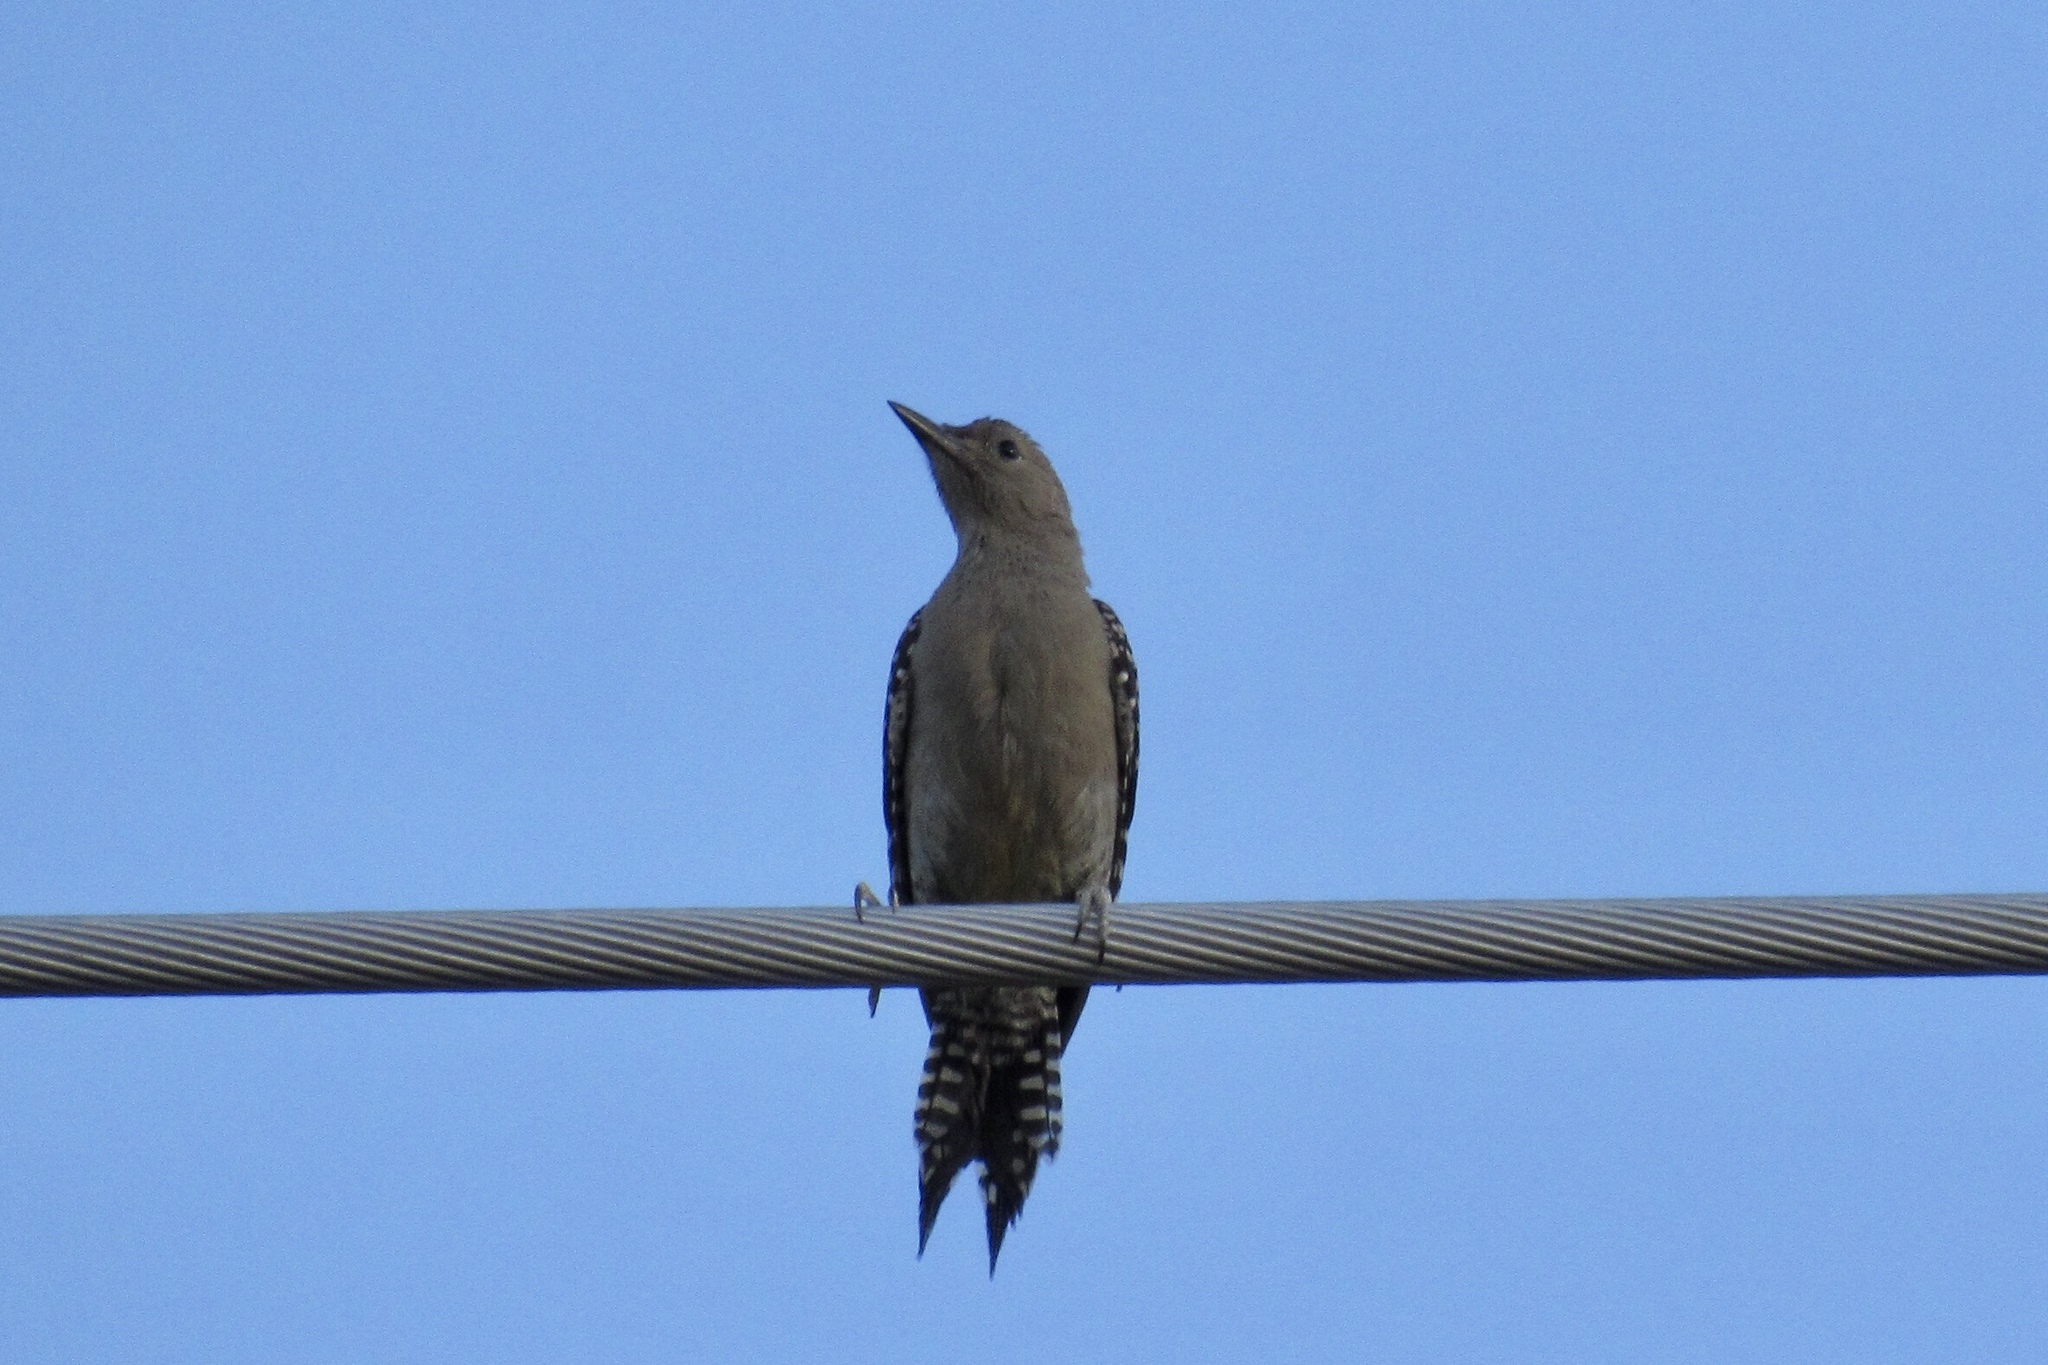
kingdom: Animalia
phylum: Chordata
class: Aves
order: Piciformes
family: Picidae
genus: Melanerpes
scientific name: Melanerpes uropygialis
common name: Gila woodpecker
